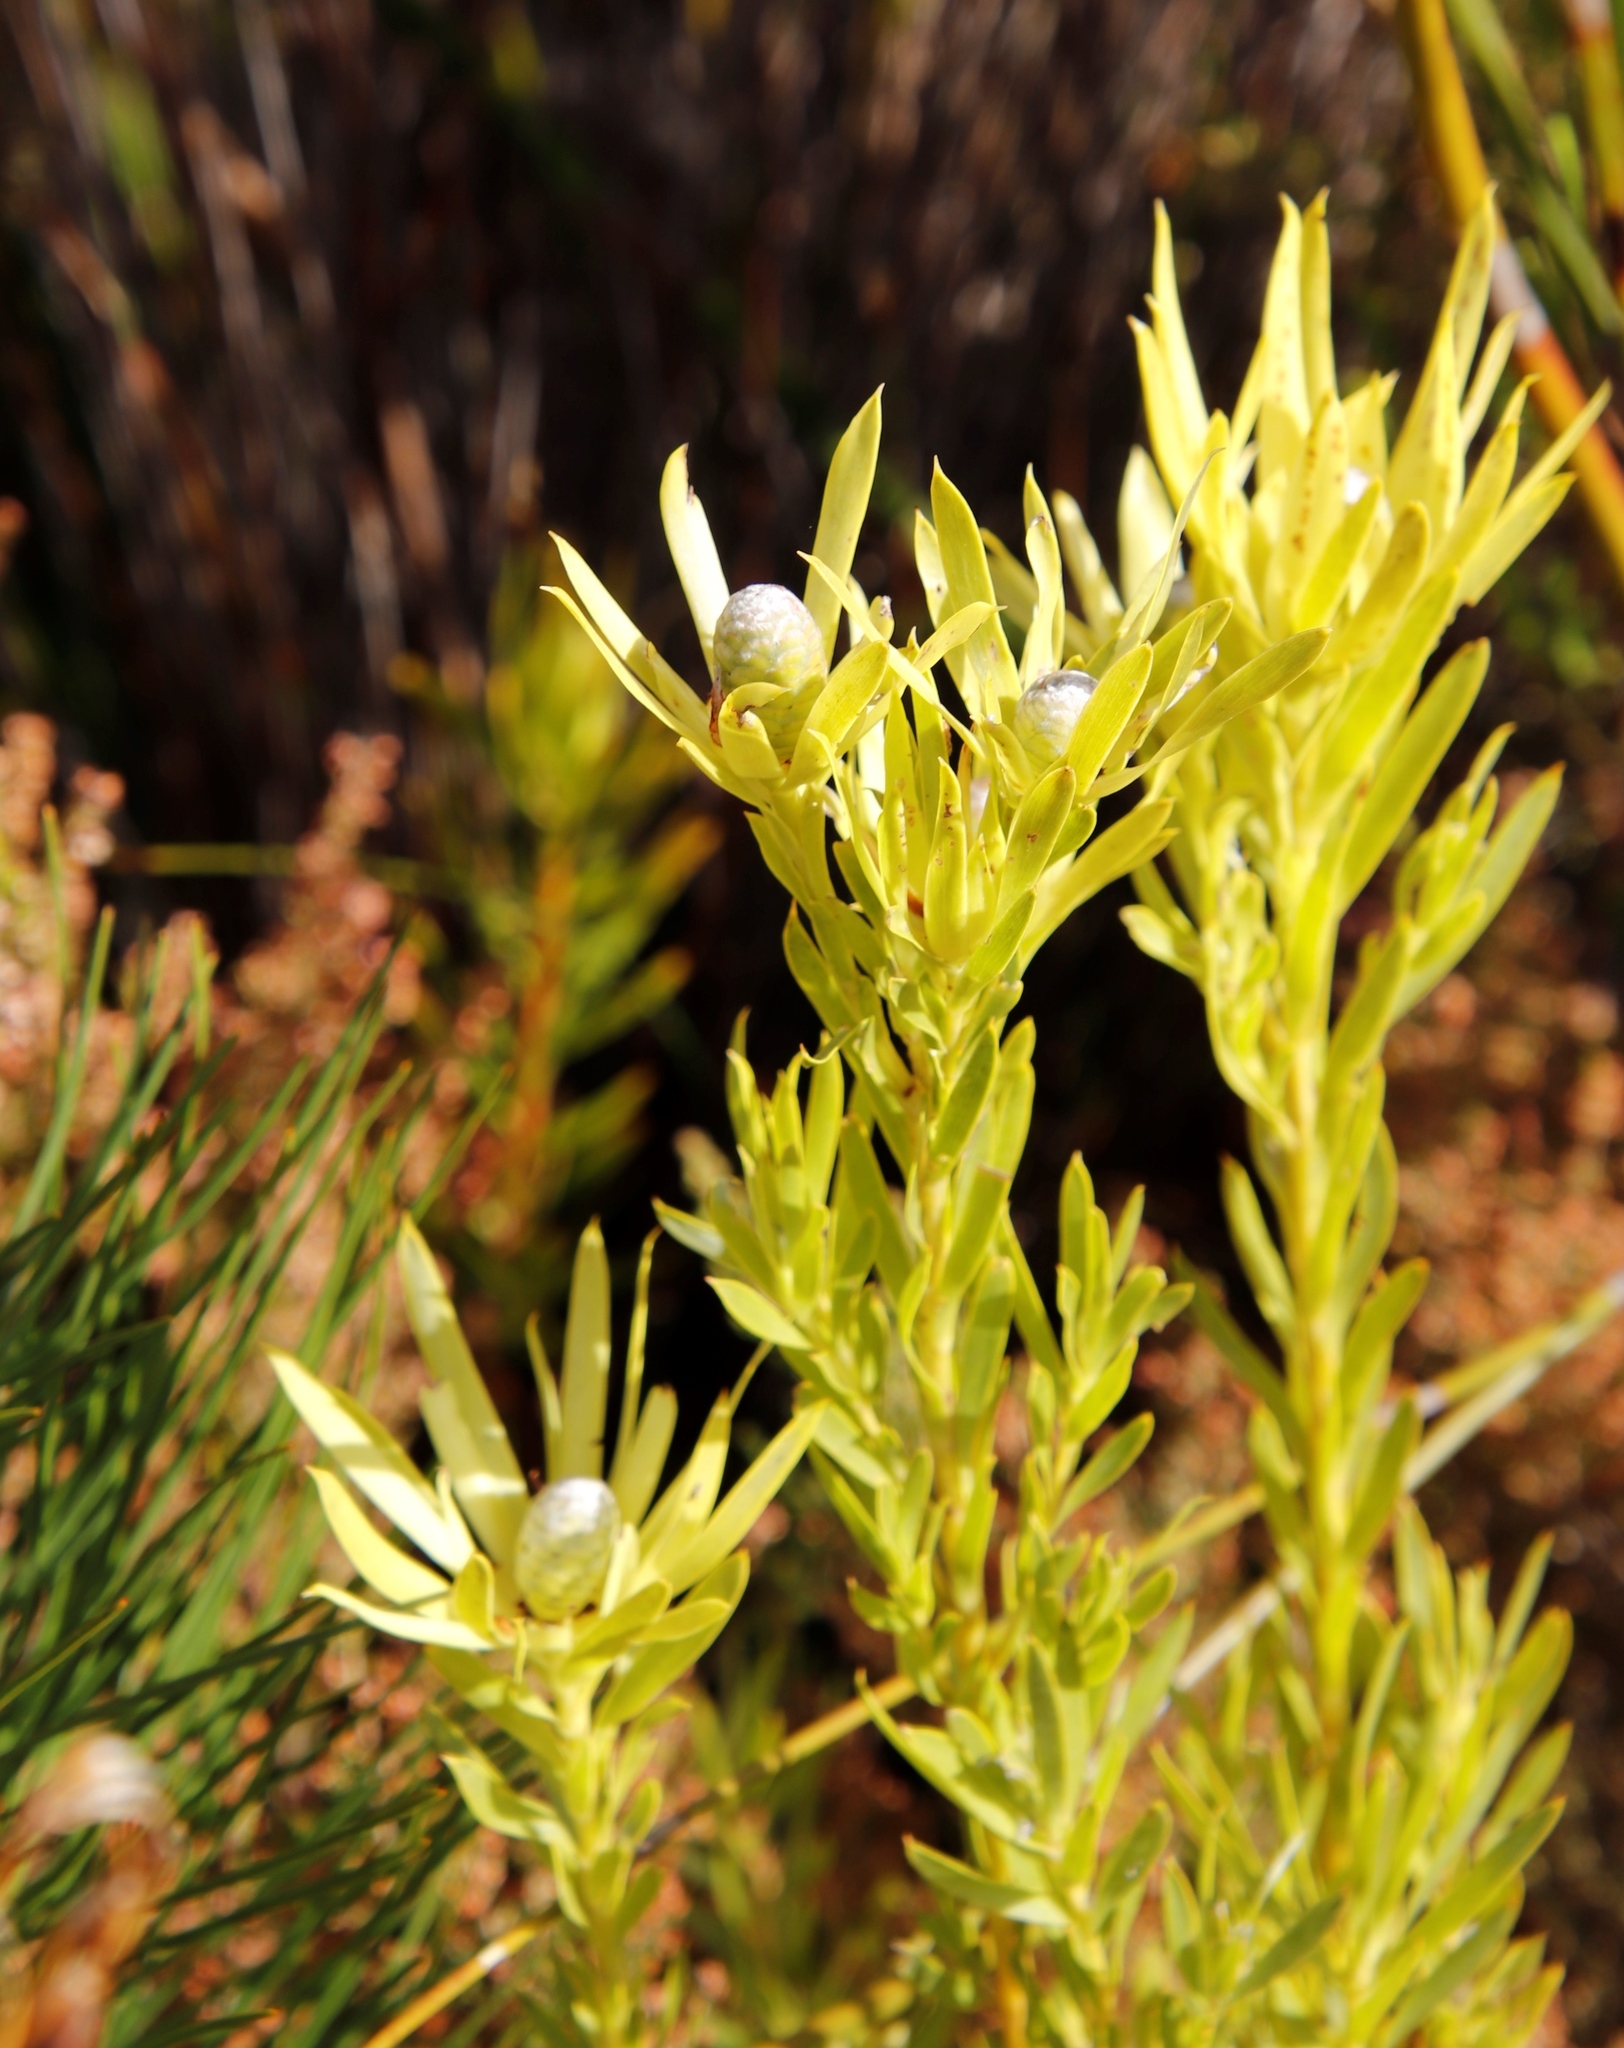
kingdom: Plantae
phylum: Tracheophyta
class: Magnoliopsida
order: Proteales
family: Proteaceae
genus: Leucadendron
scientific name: Leucadendron xanthoconus
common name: Sickle-leaf conebush
